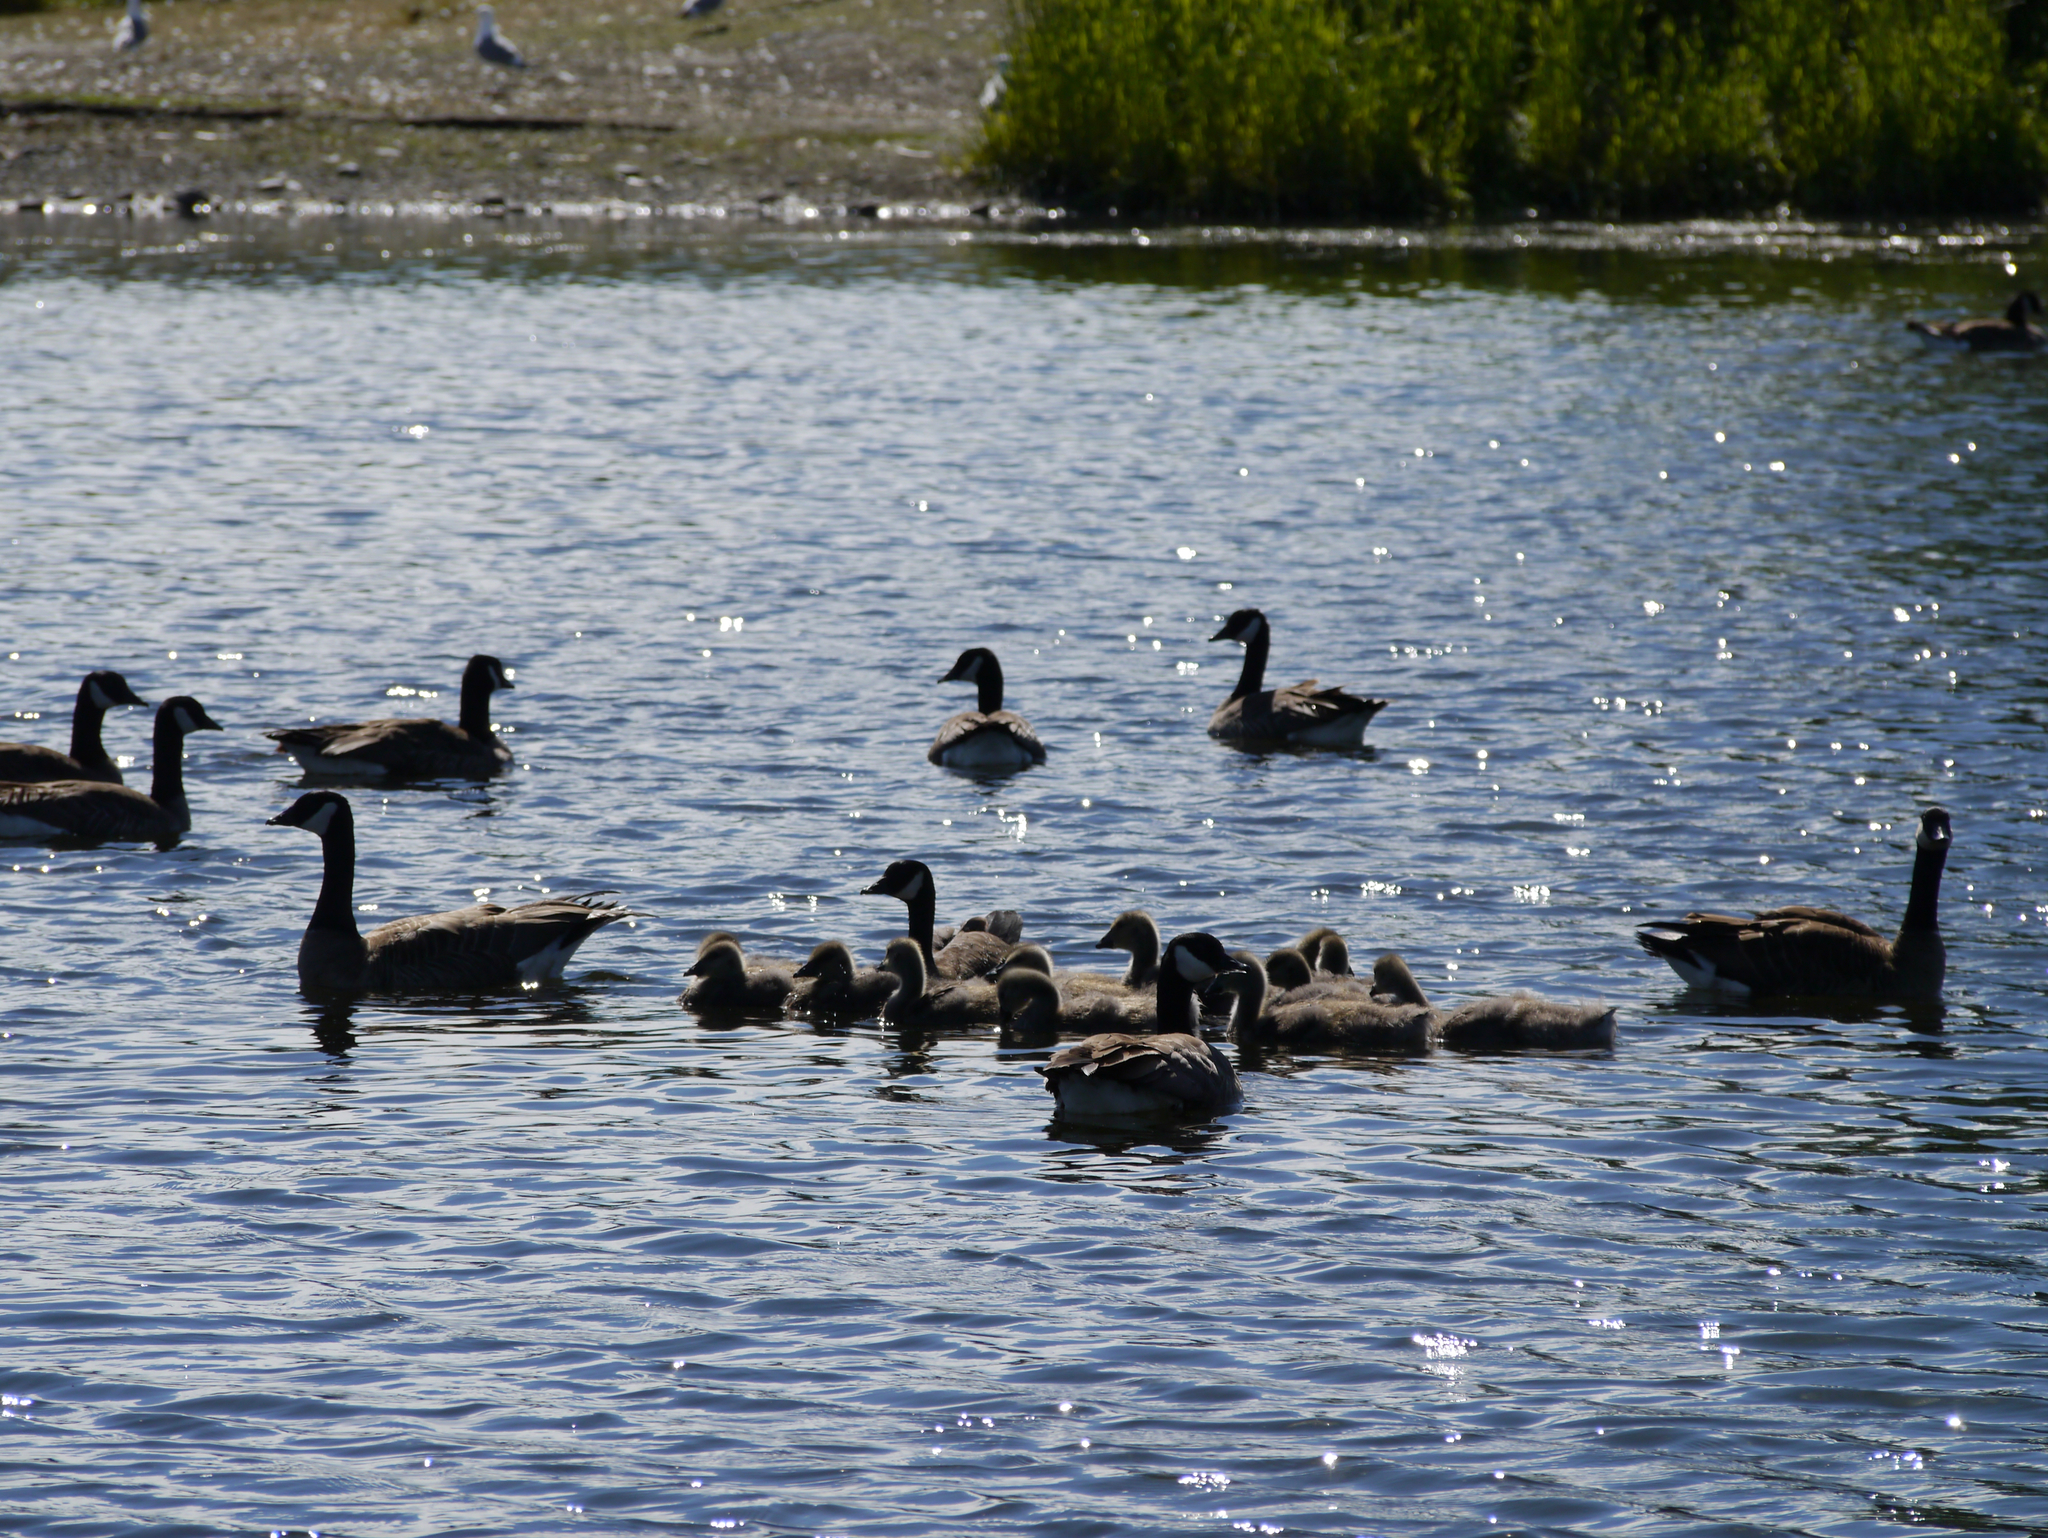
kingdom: Animalia
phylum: Chordata
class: Aves
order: Anseriformes
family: Anatidae
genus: Branta
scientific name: Branta canadensis
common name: Canada goose
